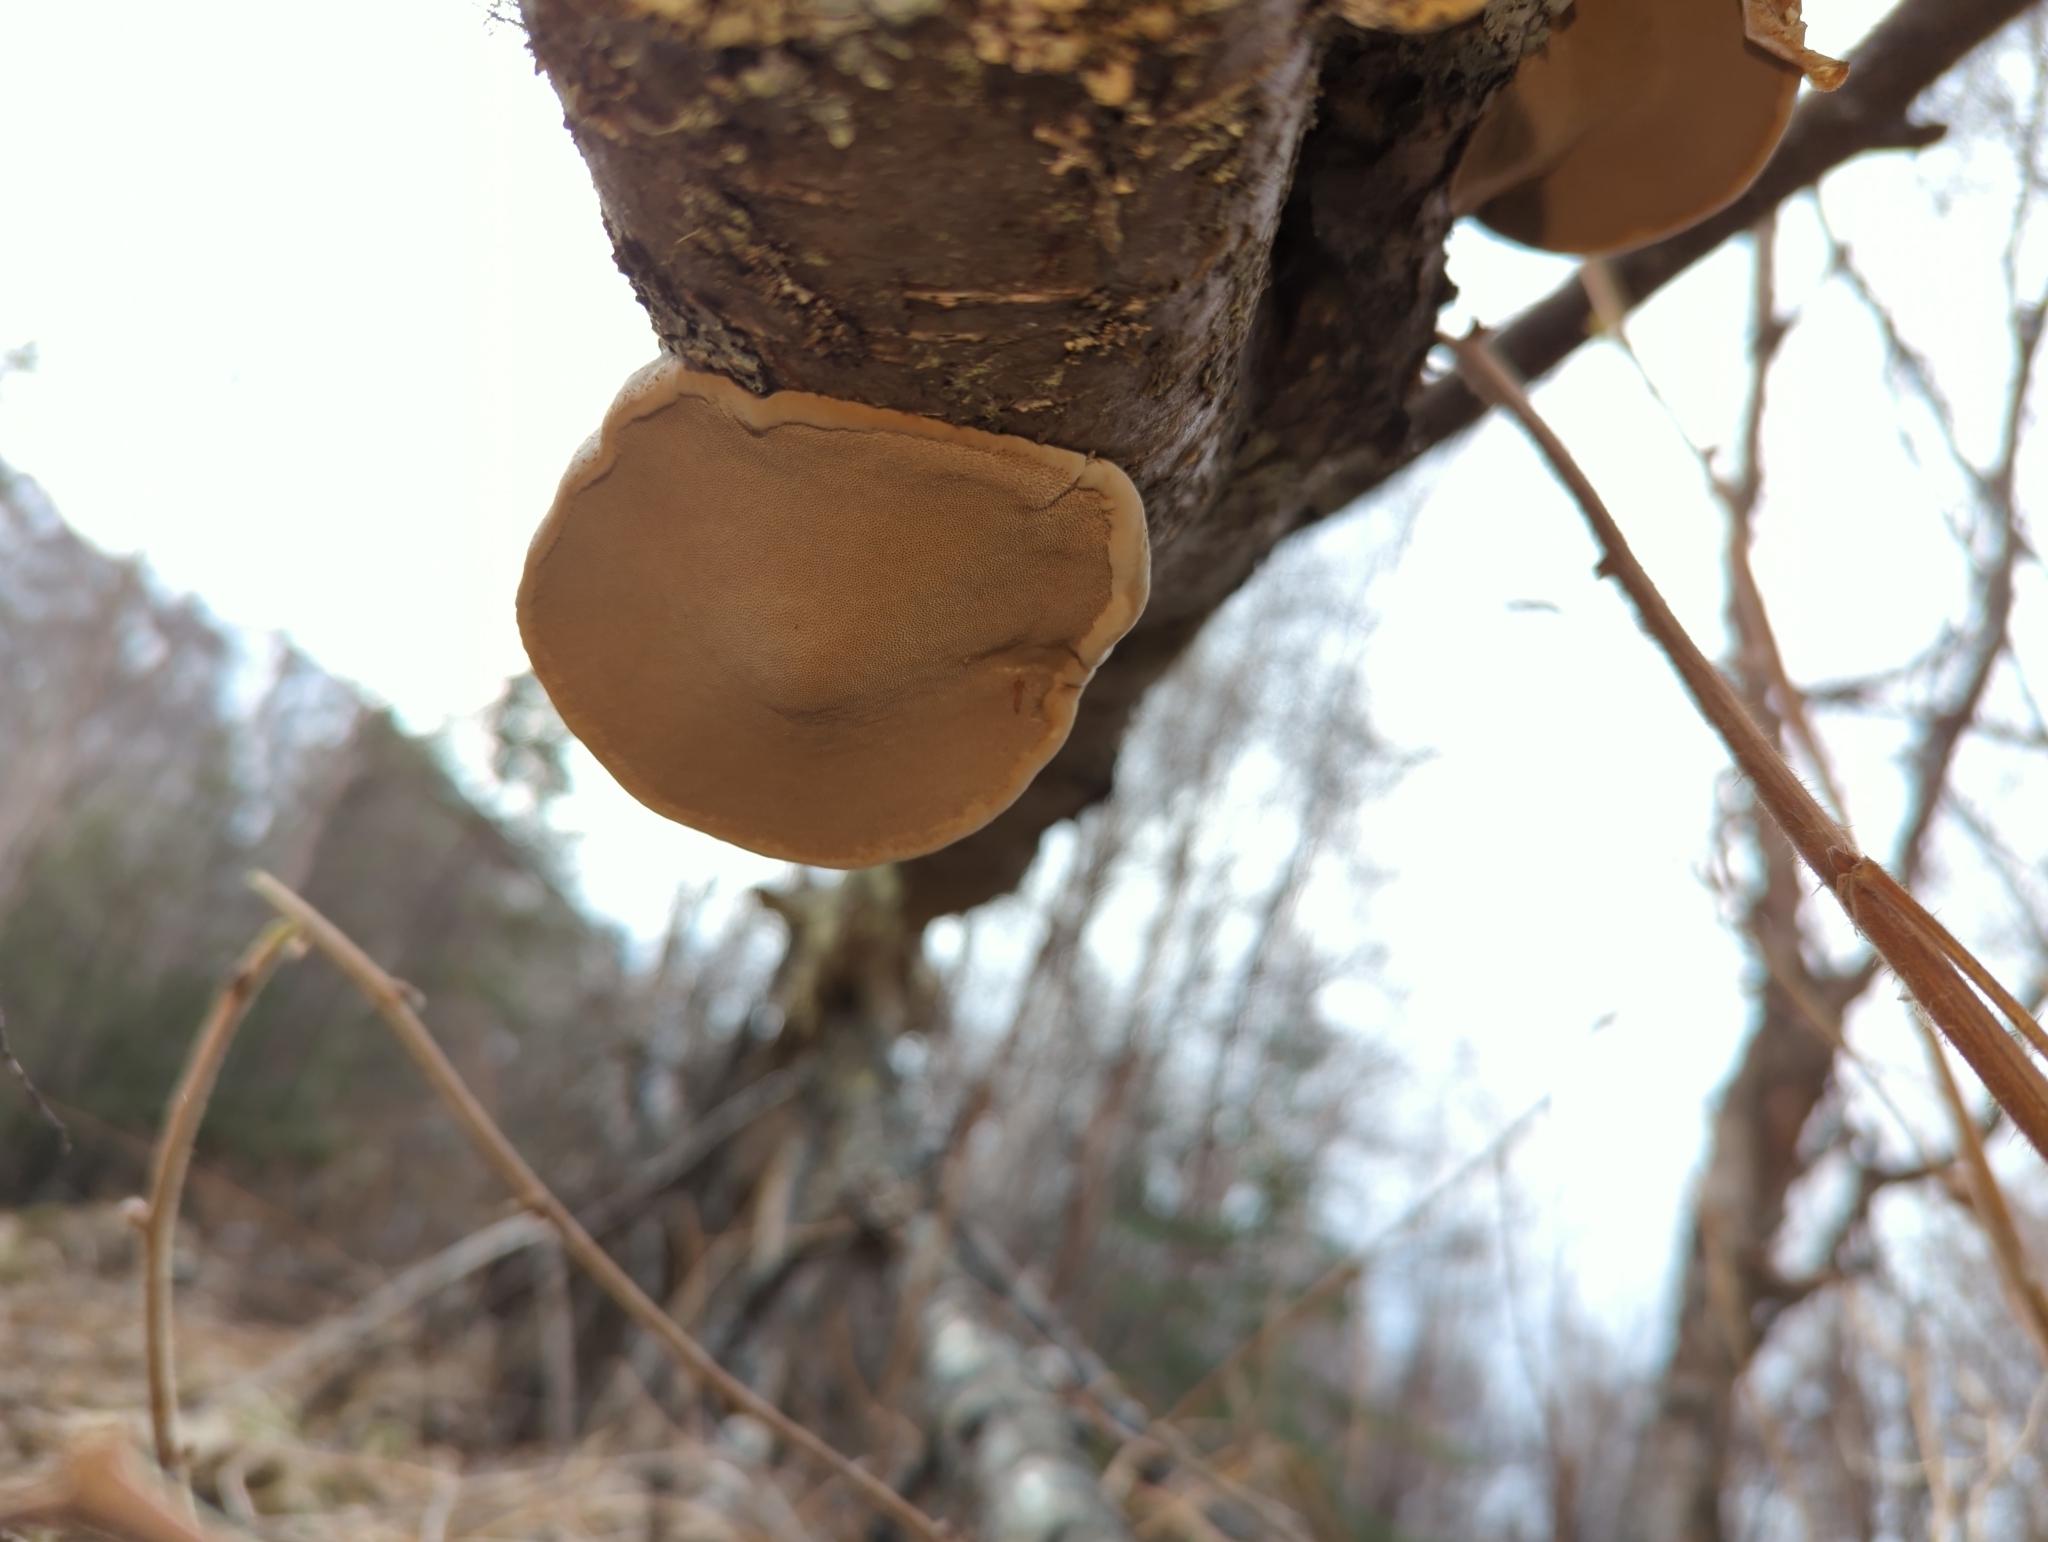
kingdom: Fungi
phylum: Basidiomycota
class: Agaricomycetes
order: Polyporales
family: Polyporaceae
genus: Fomes
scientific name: Fomes fomentarius
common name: Hoof fungus
